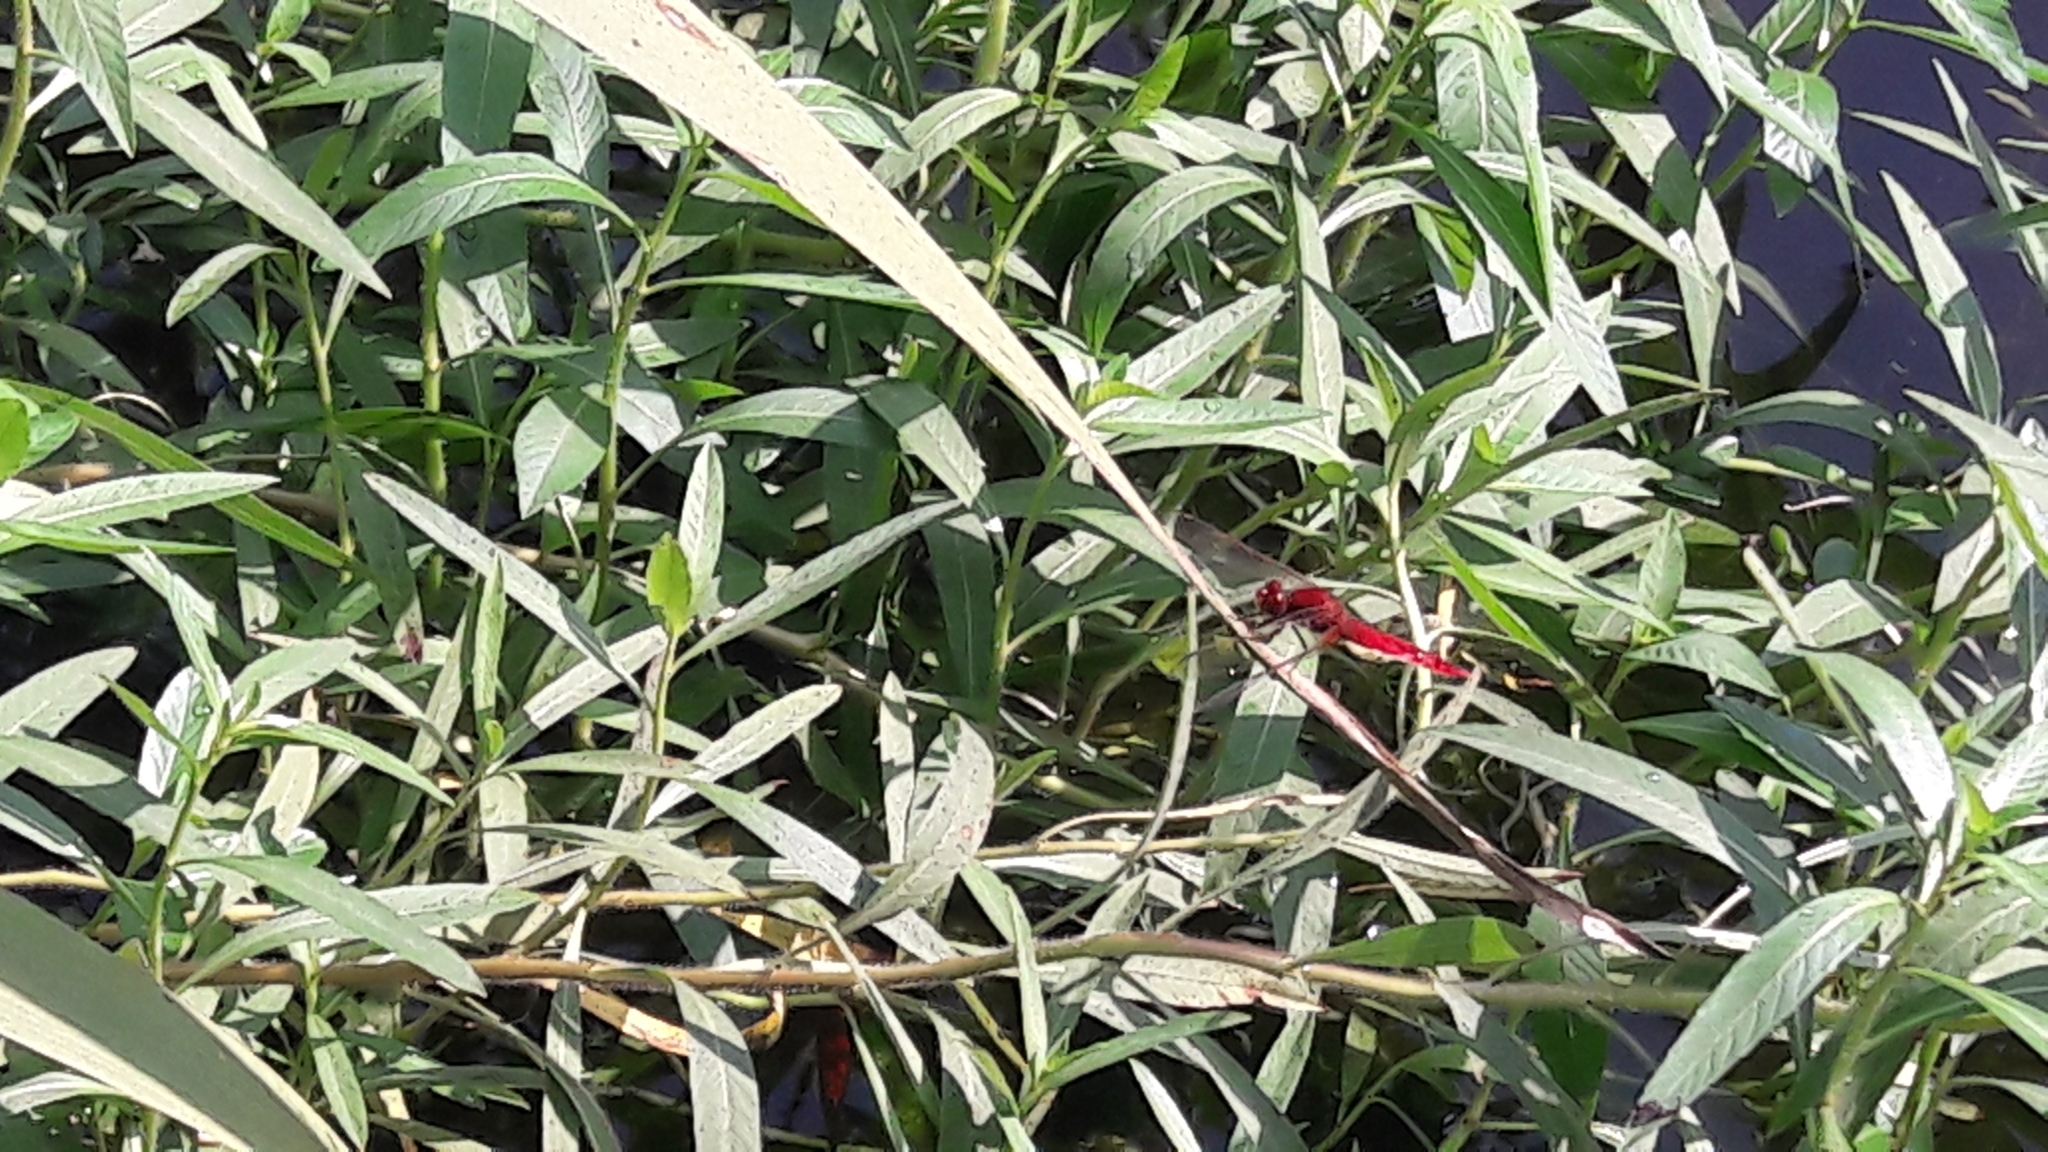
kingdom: Animalia
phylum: Arthropoda
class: Insecta
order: Odonata
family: Libellulidae
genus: Crocothemis
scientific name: Crocothemis erythraea
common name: Scarlet dragonfly
